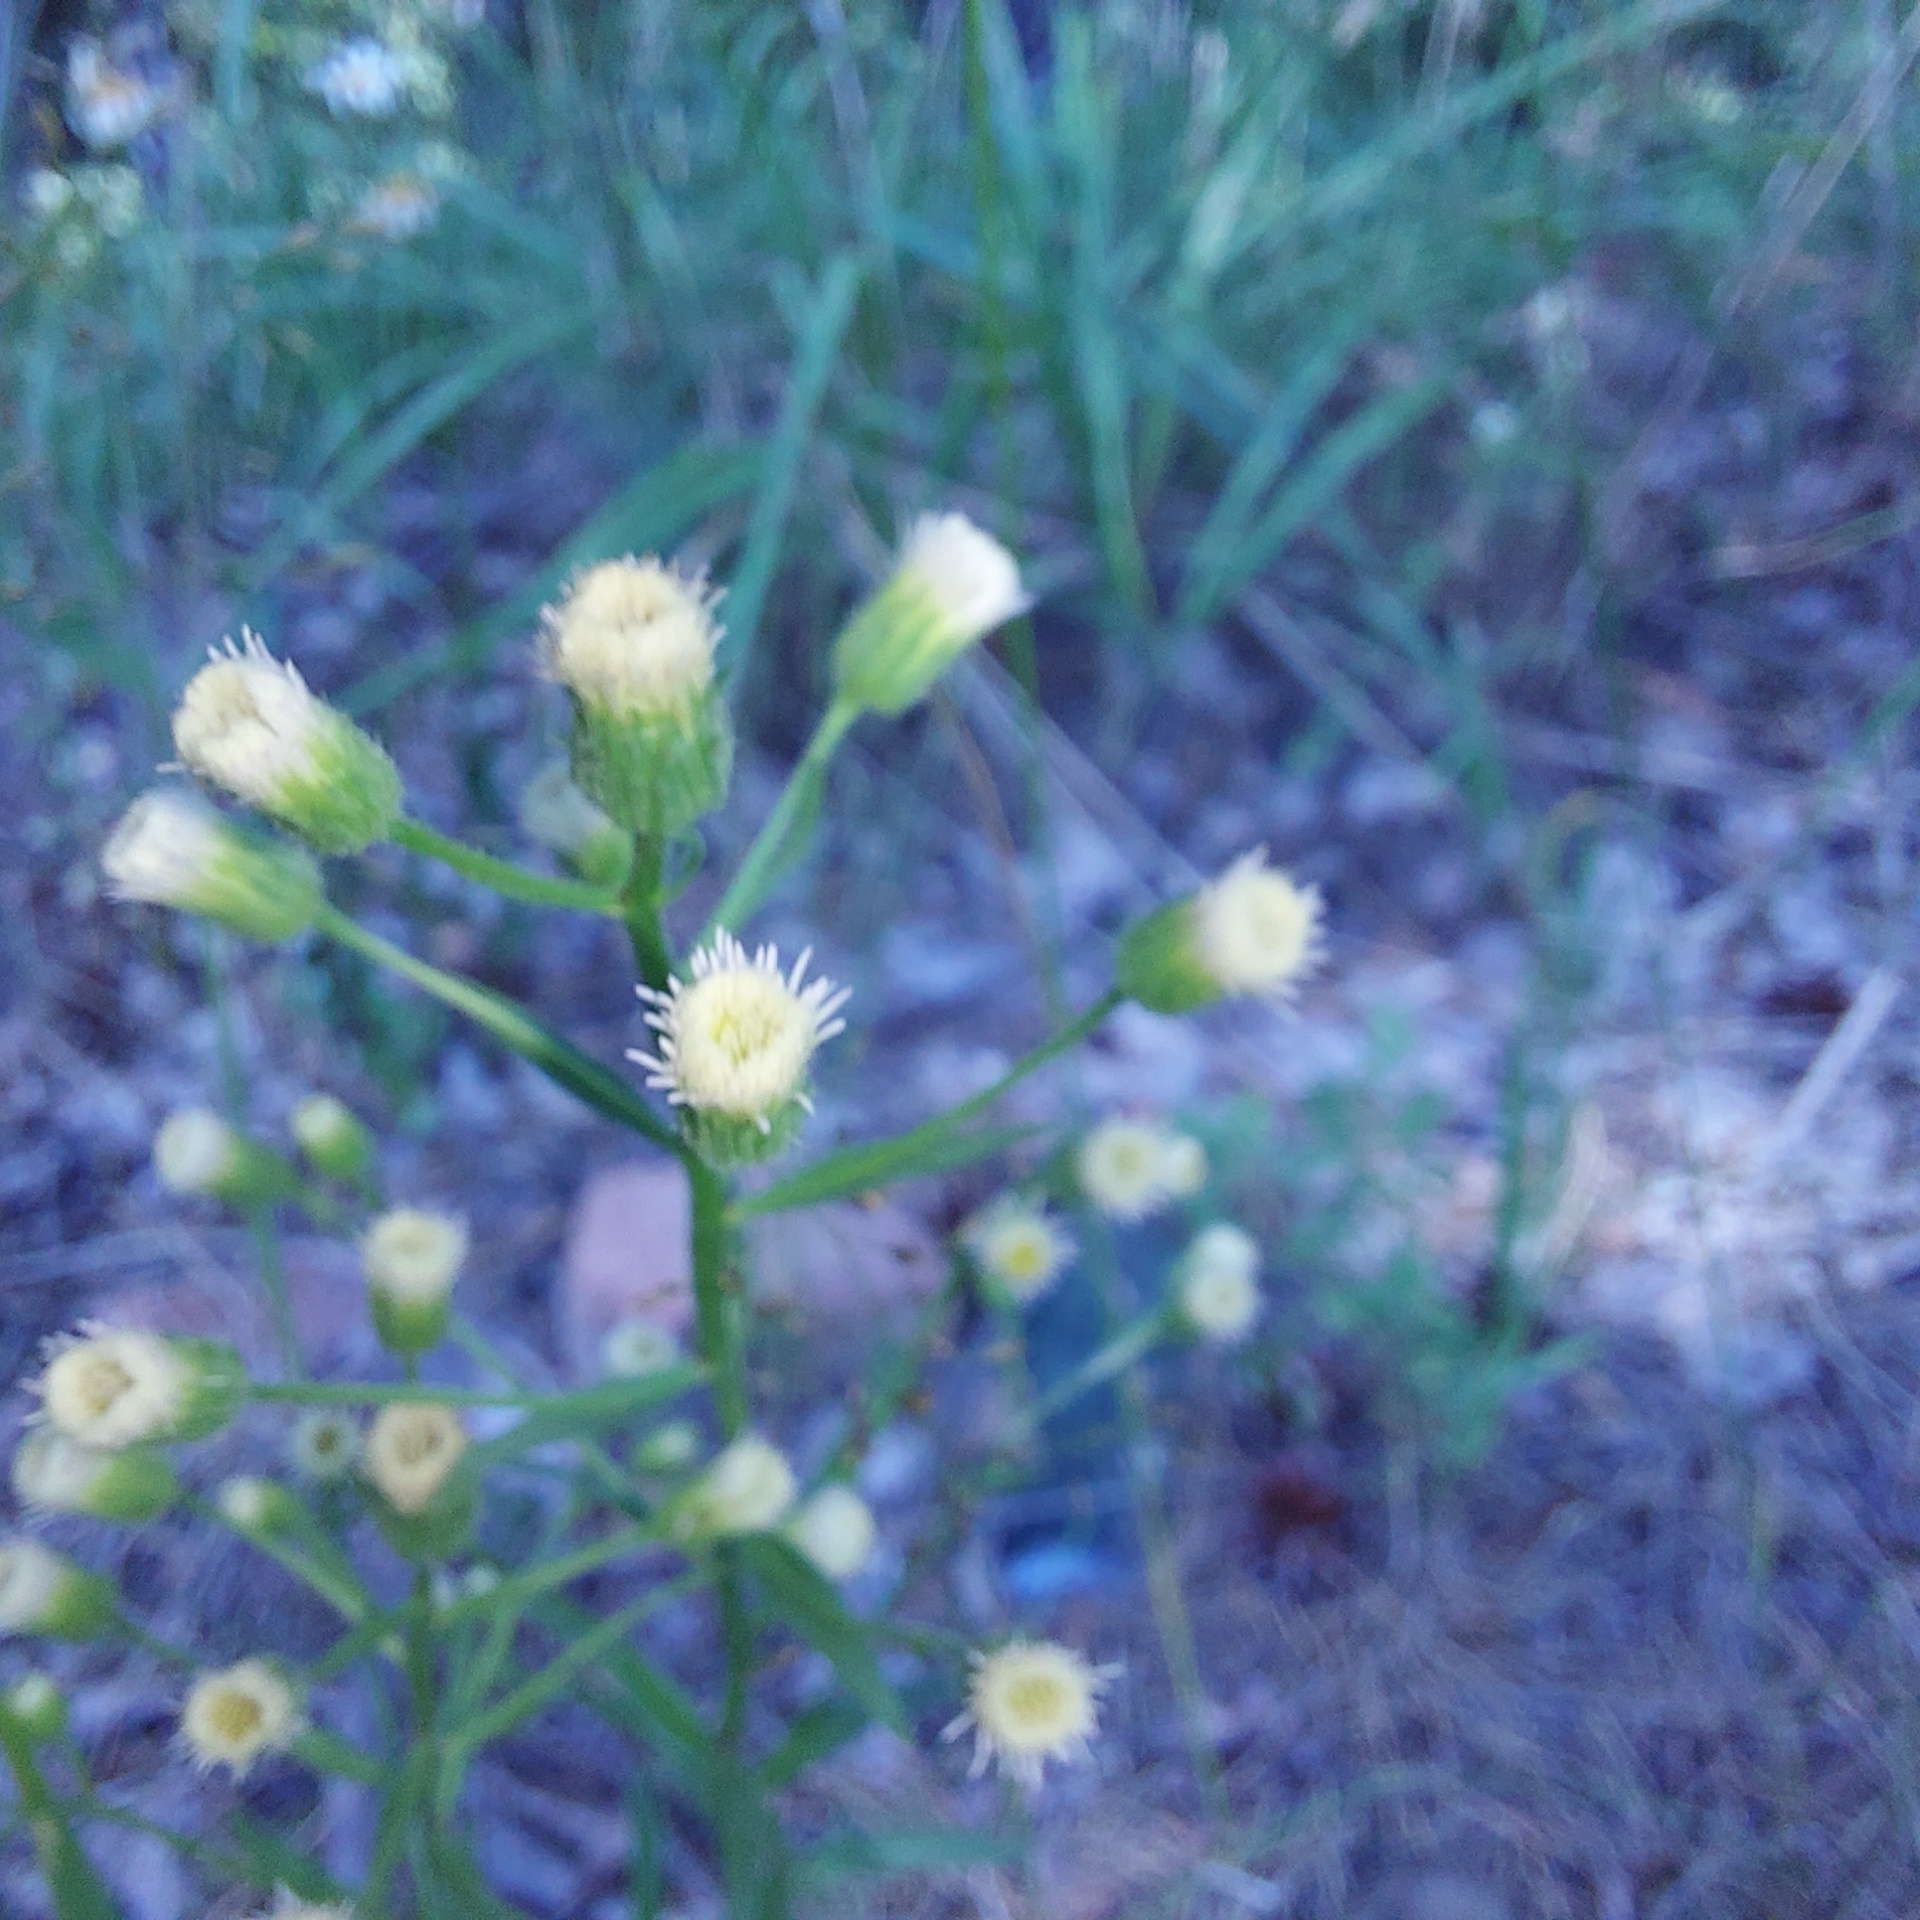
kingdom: Plantae
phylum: Tracheophyta
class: Magnoliopsida
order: Asterales
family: Asteraceae
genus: Erigeron
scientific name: Erigeron acris
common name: Blue fleabane
